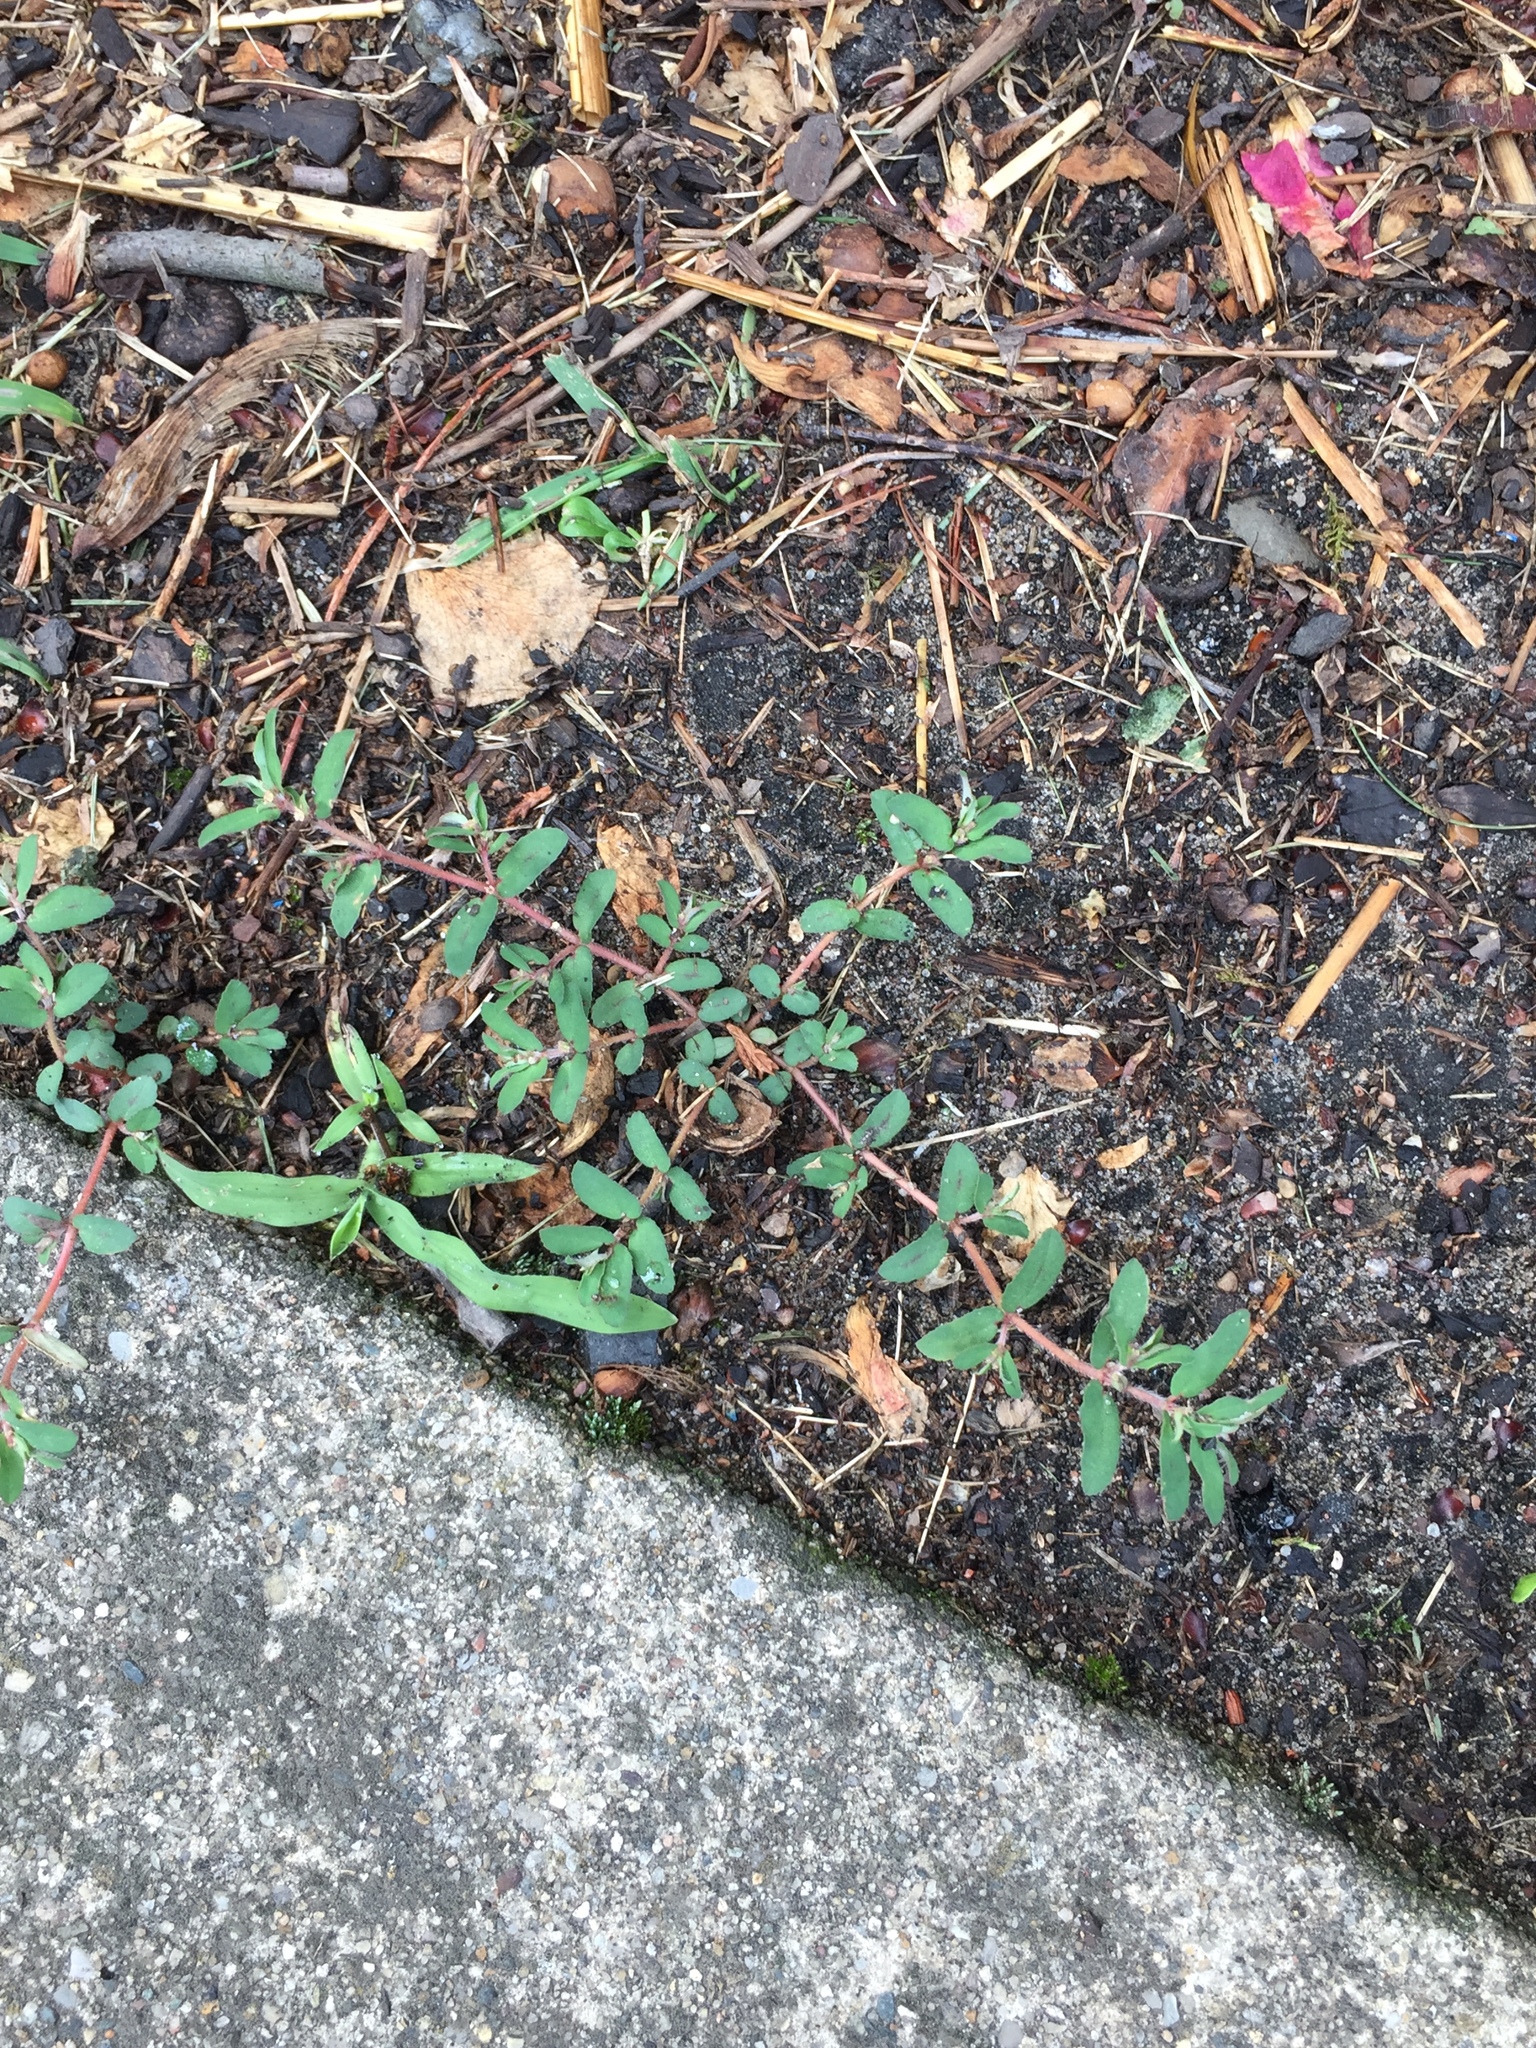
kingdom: Plantae
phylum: Tracheophyta
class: Magnoliopsida
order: Malpighiales
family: Euphorbiaceae
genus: Euphorbia
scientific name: Euphorbia maculata
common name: Spotted spurge
